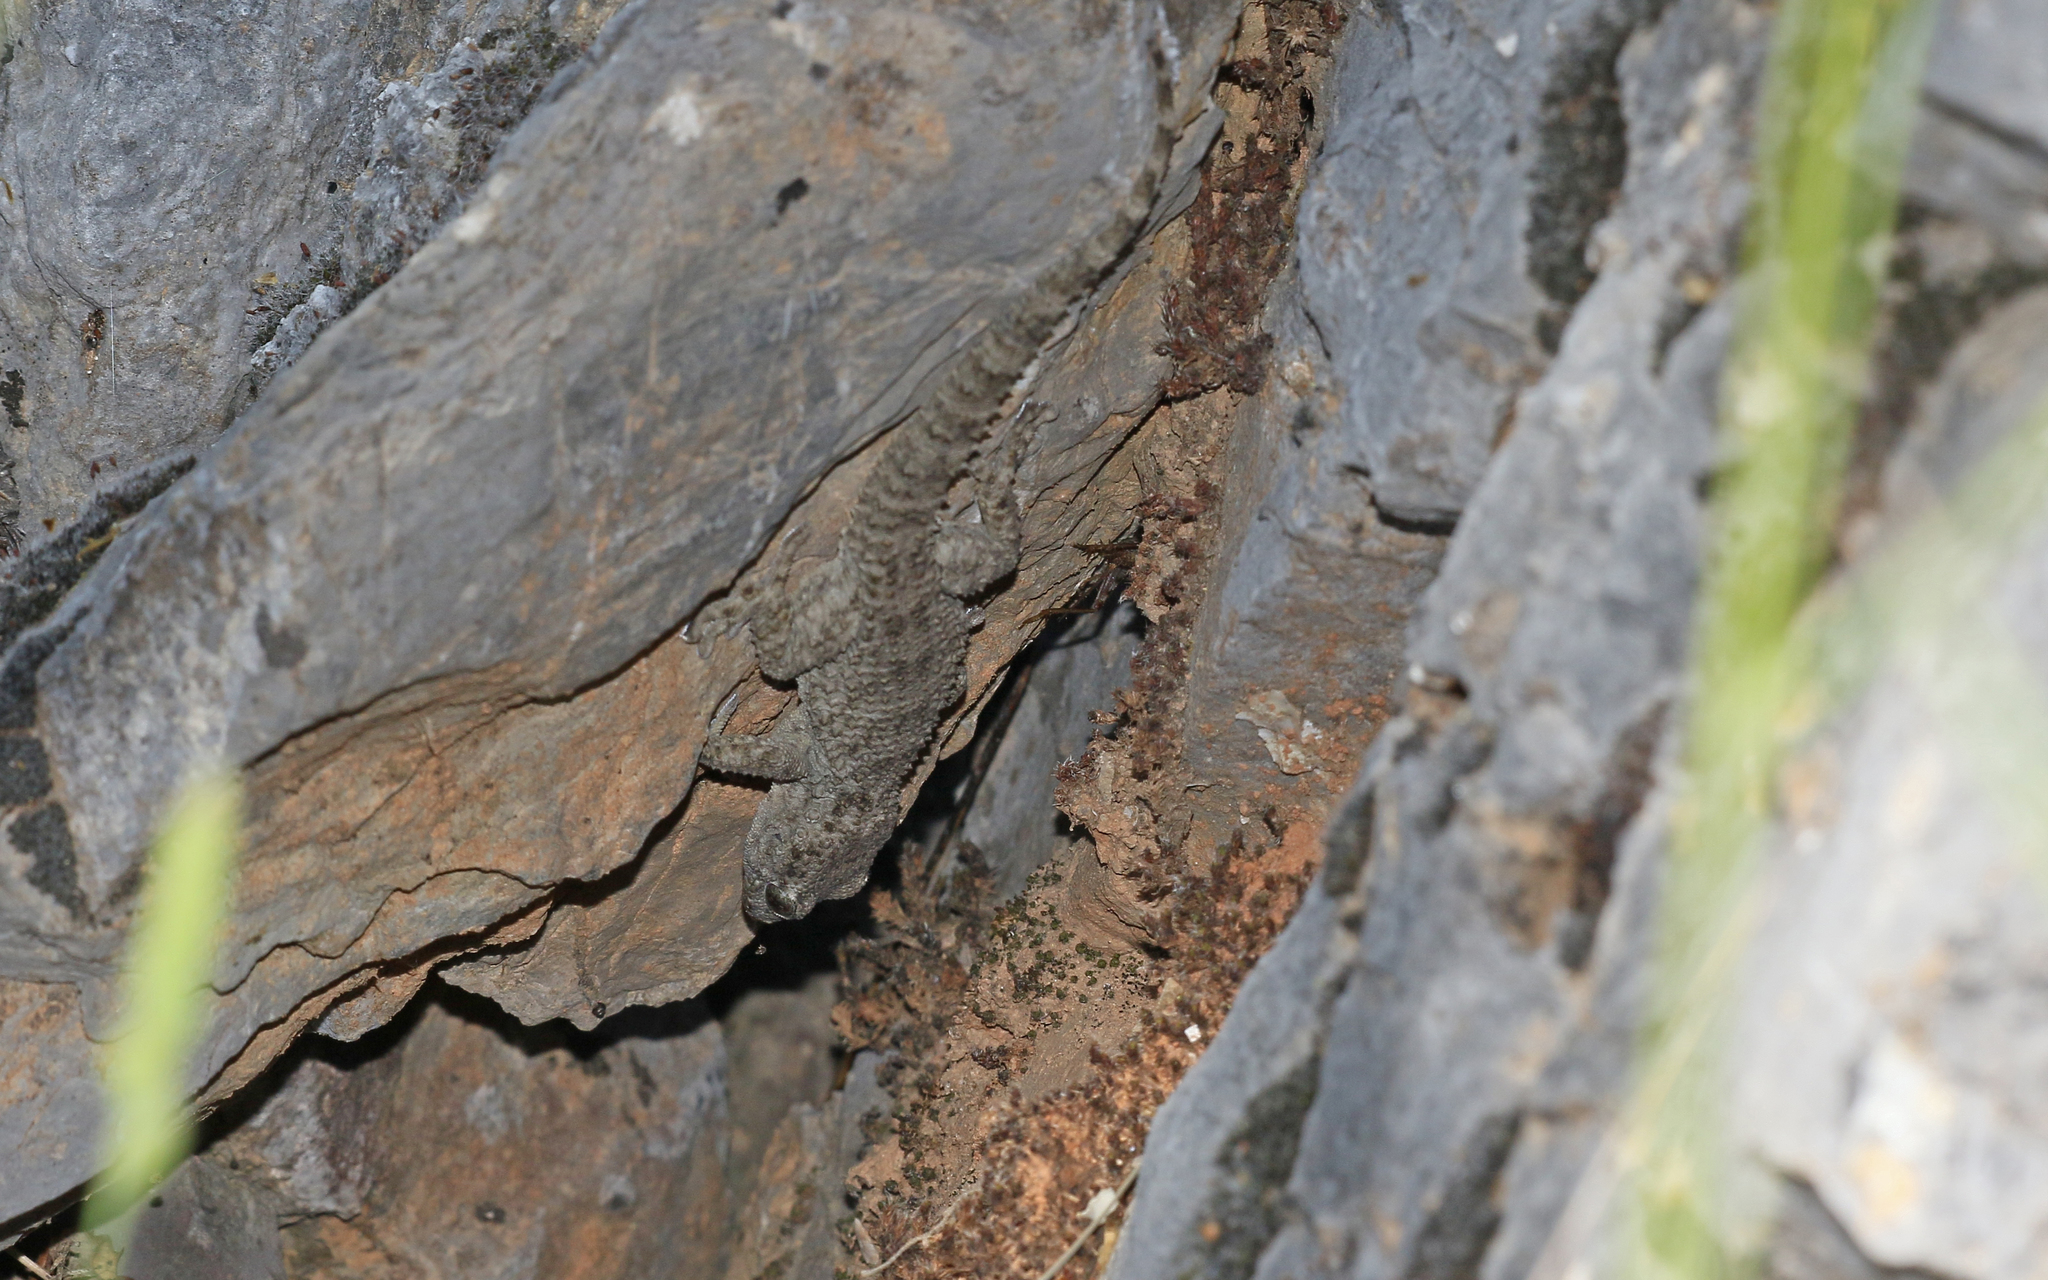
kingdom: Animalia
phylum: Chordata
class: Squamata
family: Phyllodactylidae
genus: Tarentola
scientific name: Tarentola mauritanica
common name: Moorish gecko
